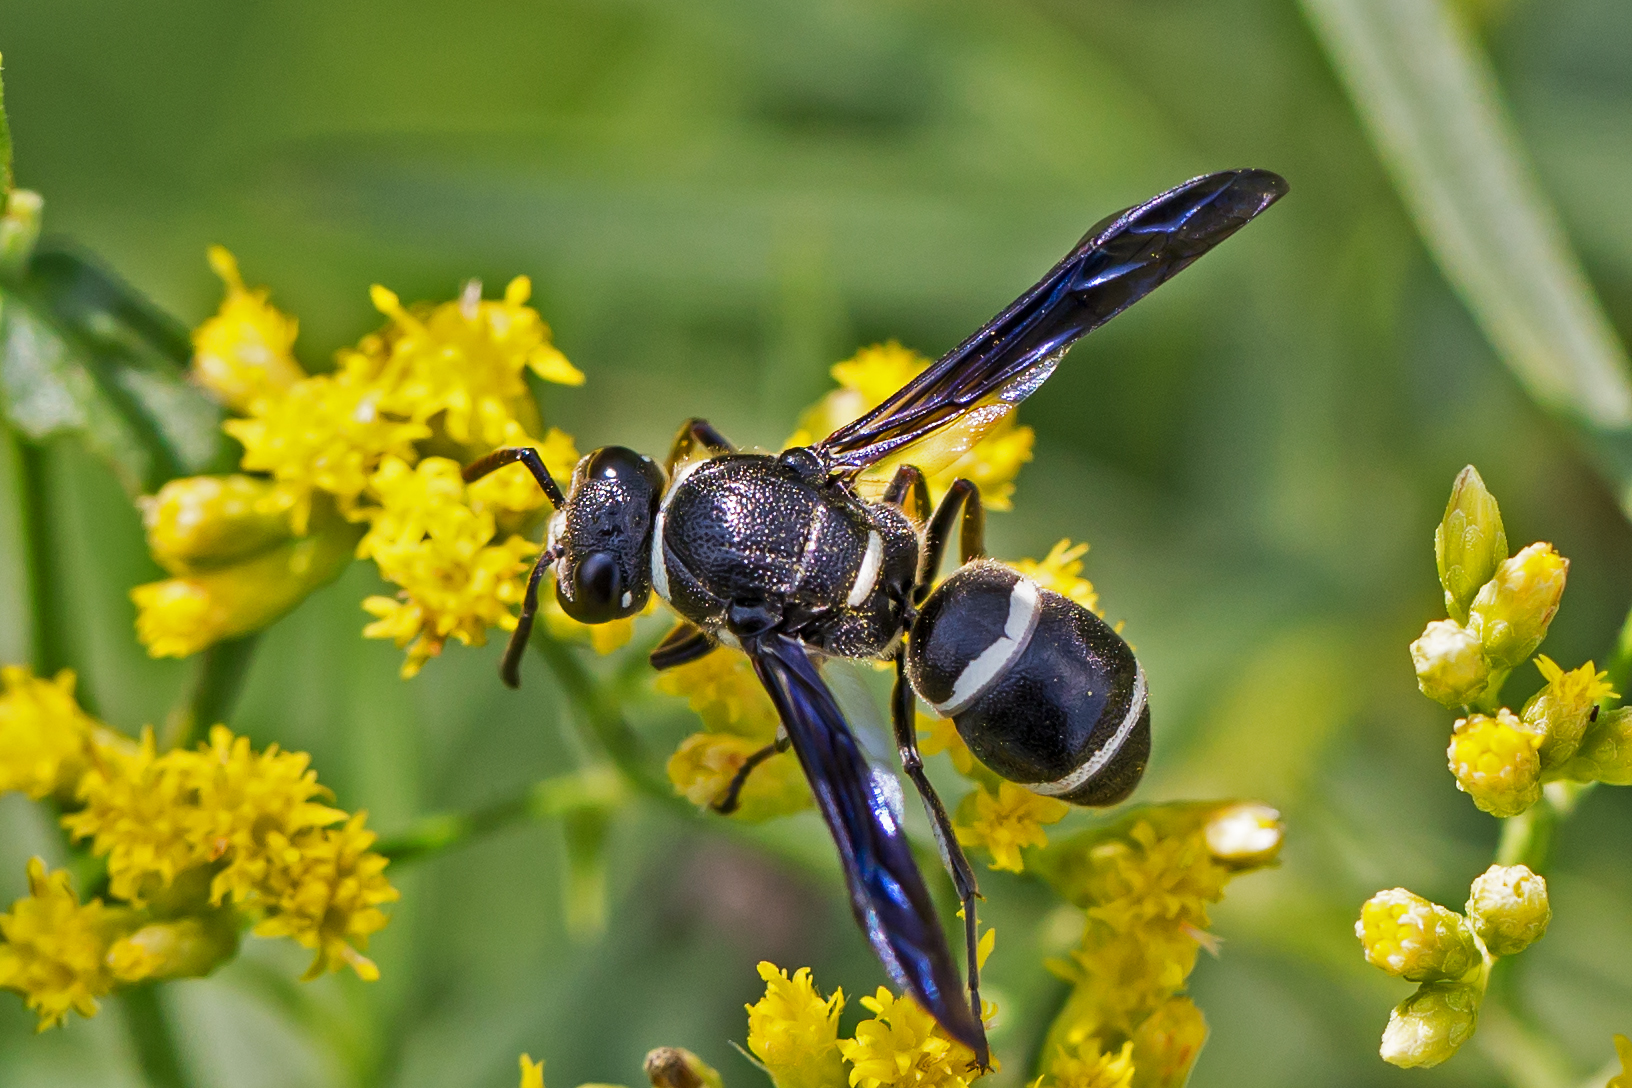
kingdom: Animalia
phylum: Arthropoda
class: Insecta
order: Hymenoptera
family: Eumenidae
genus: Euodynerus
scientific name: Euodynerus schwarzi
